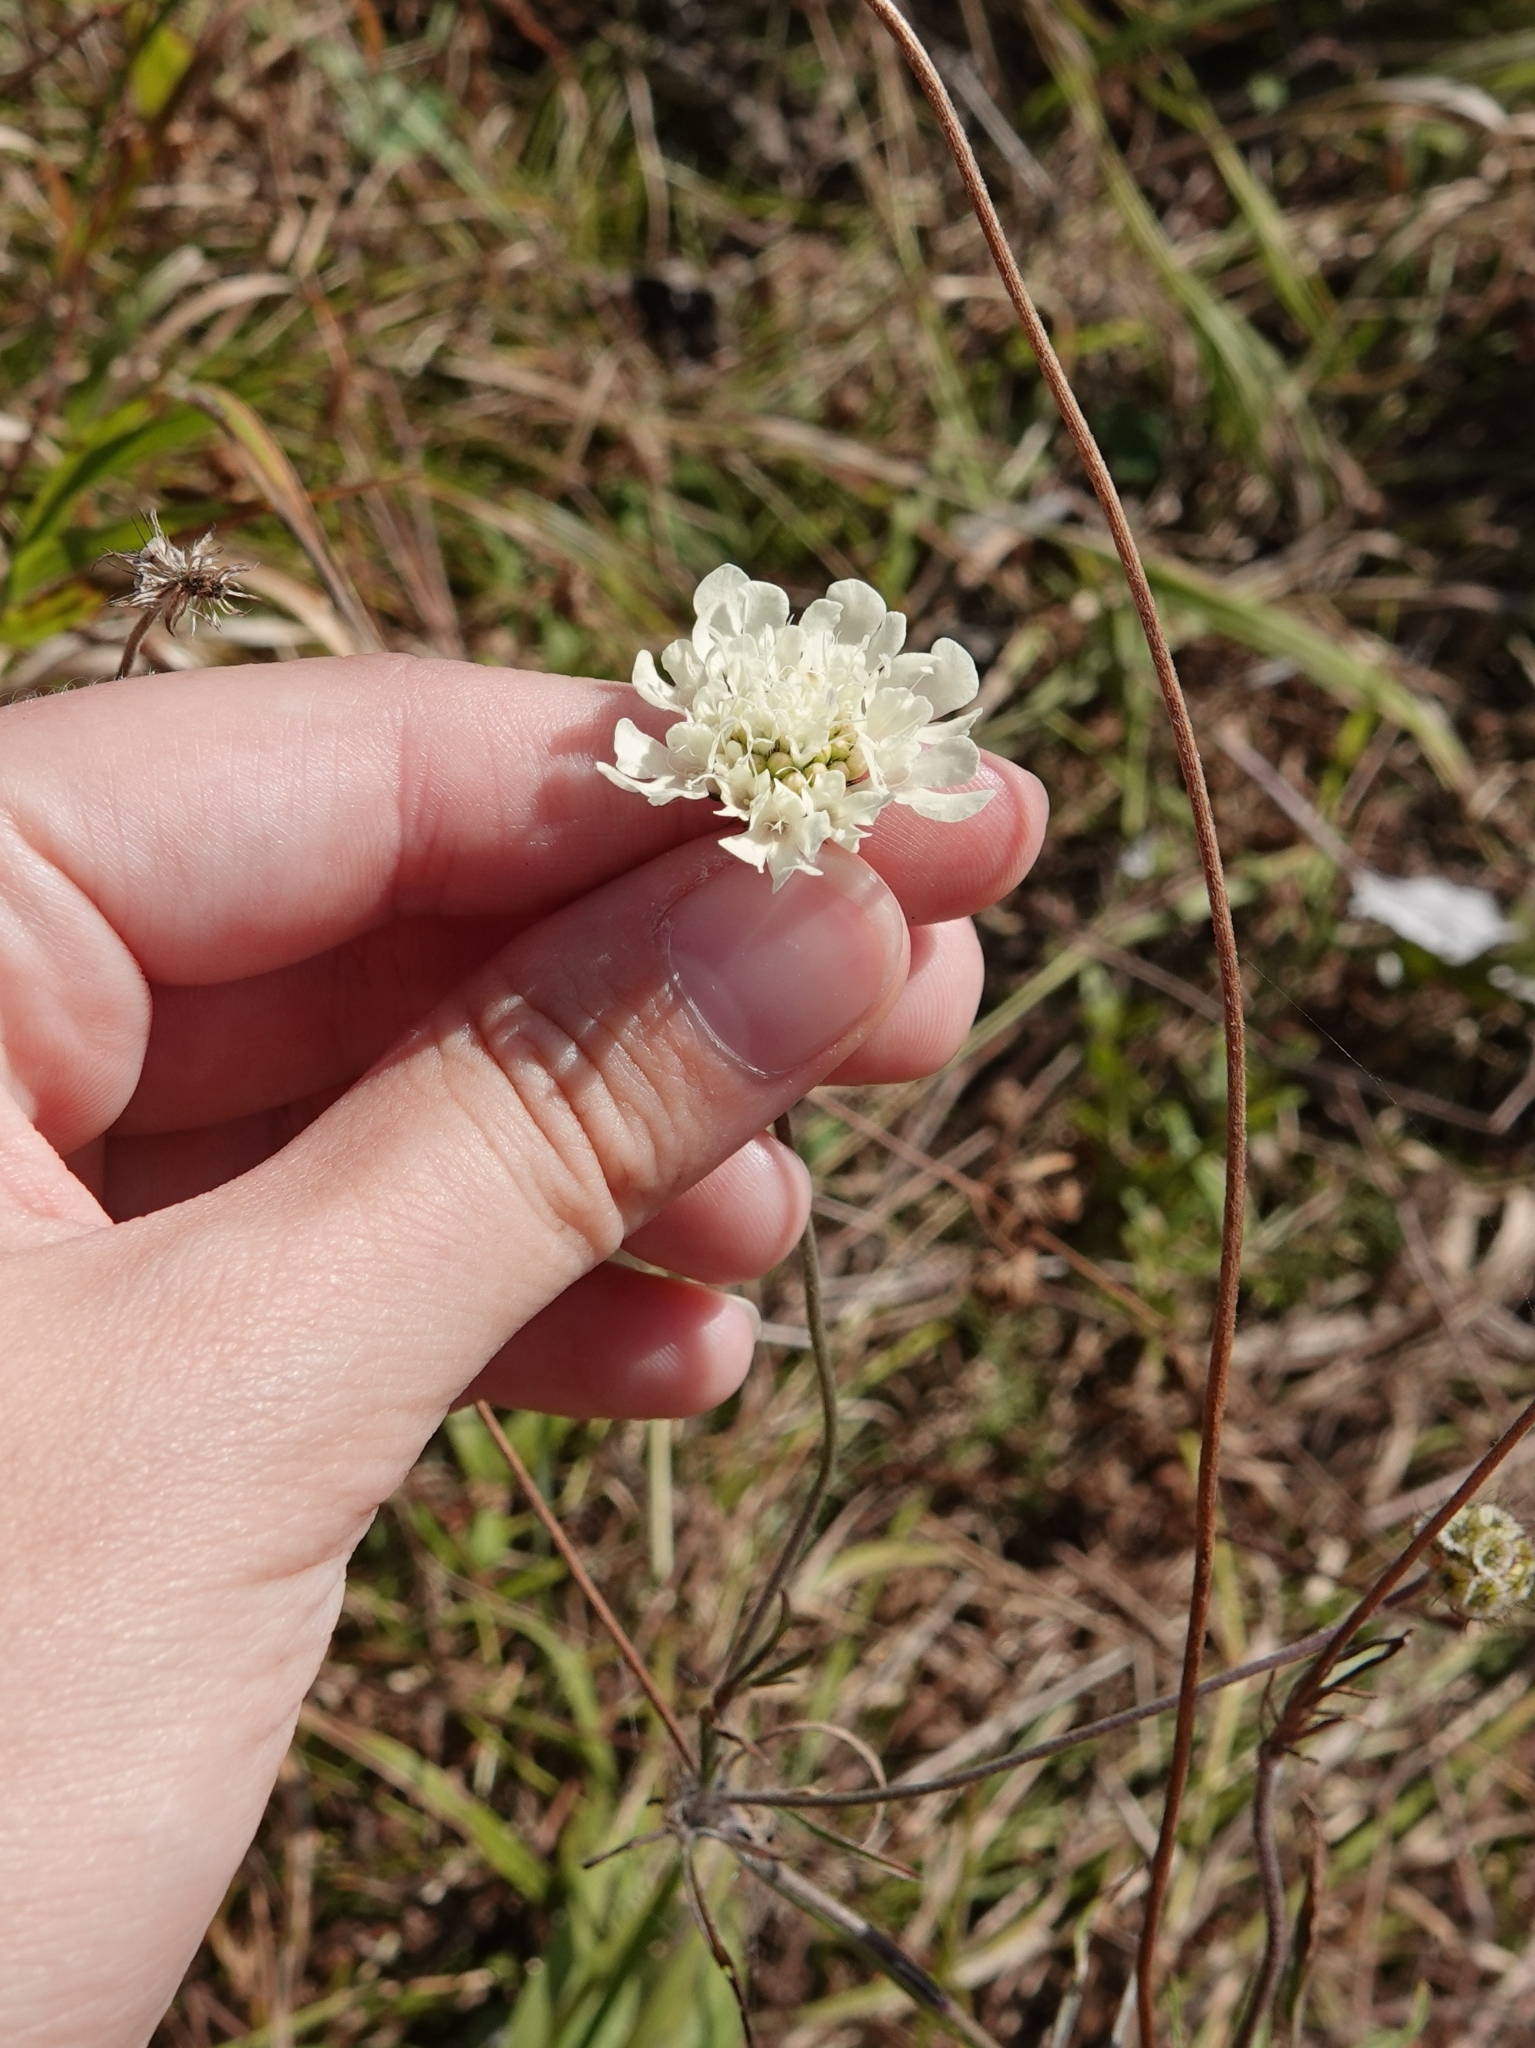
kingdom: Plantae
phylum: Tracheophyta
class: Magnoliopsida
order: Dipsacales
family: Caprifoliaceae
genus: Scabiosa
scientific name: Scabiosa ochroleuca
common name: Cream pincushions
